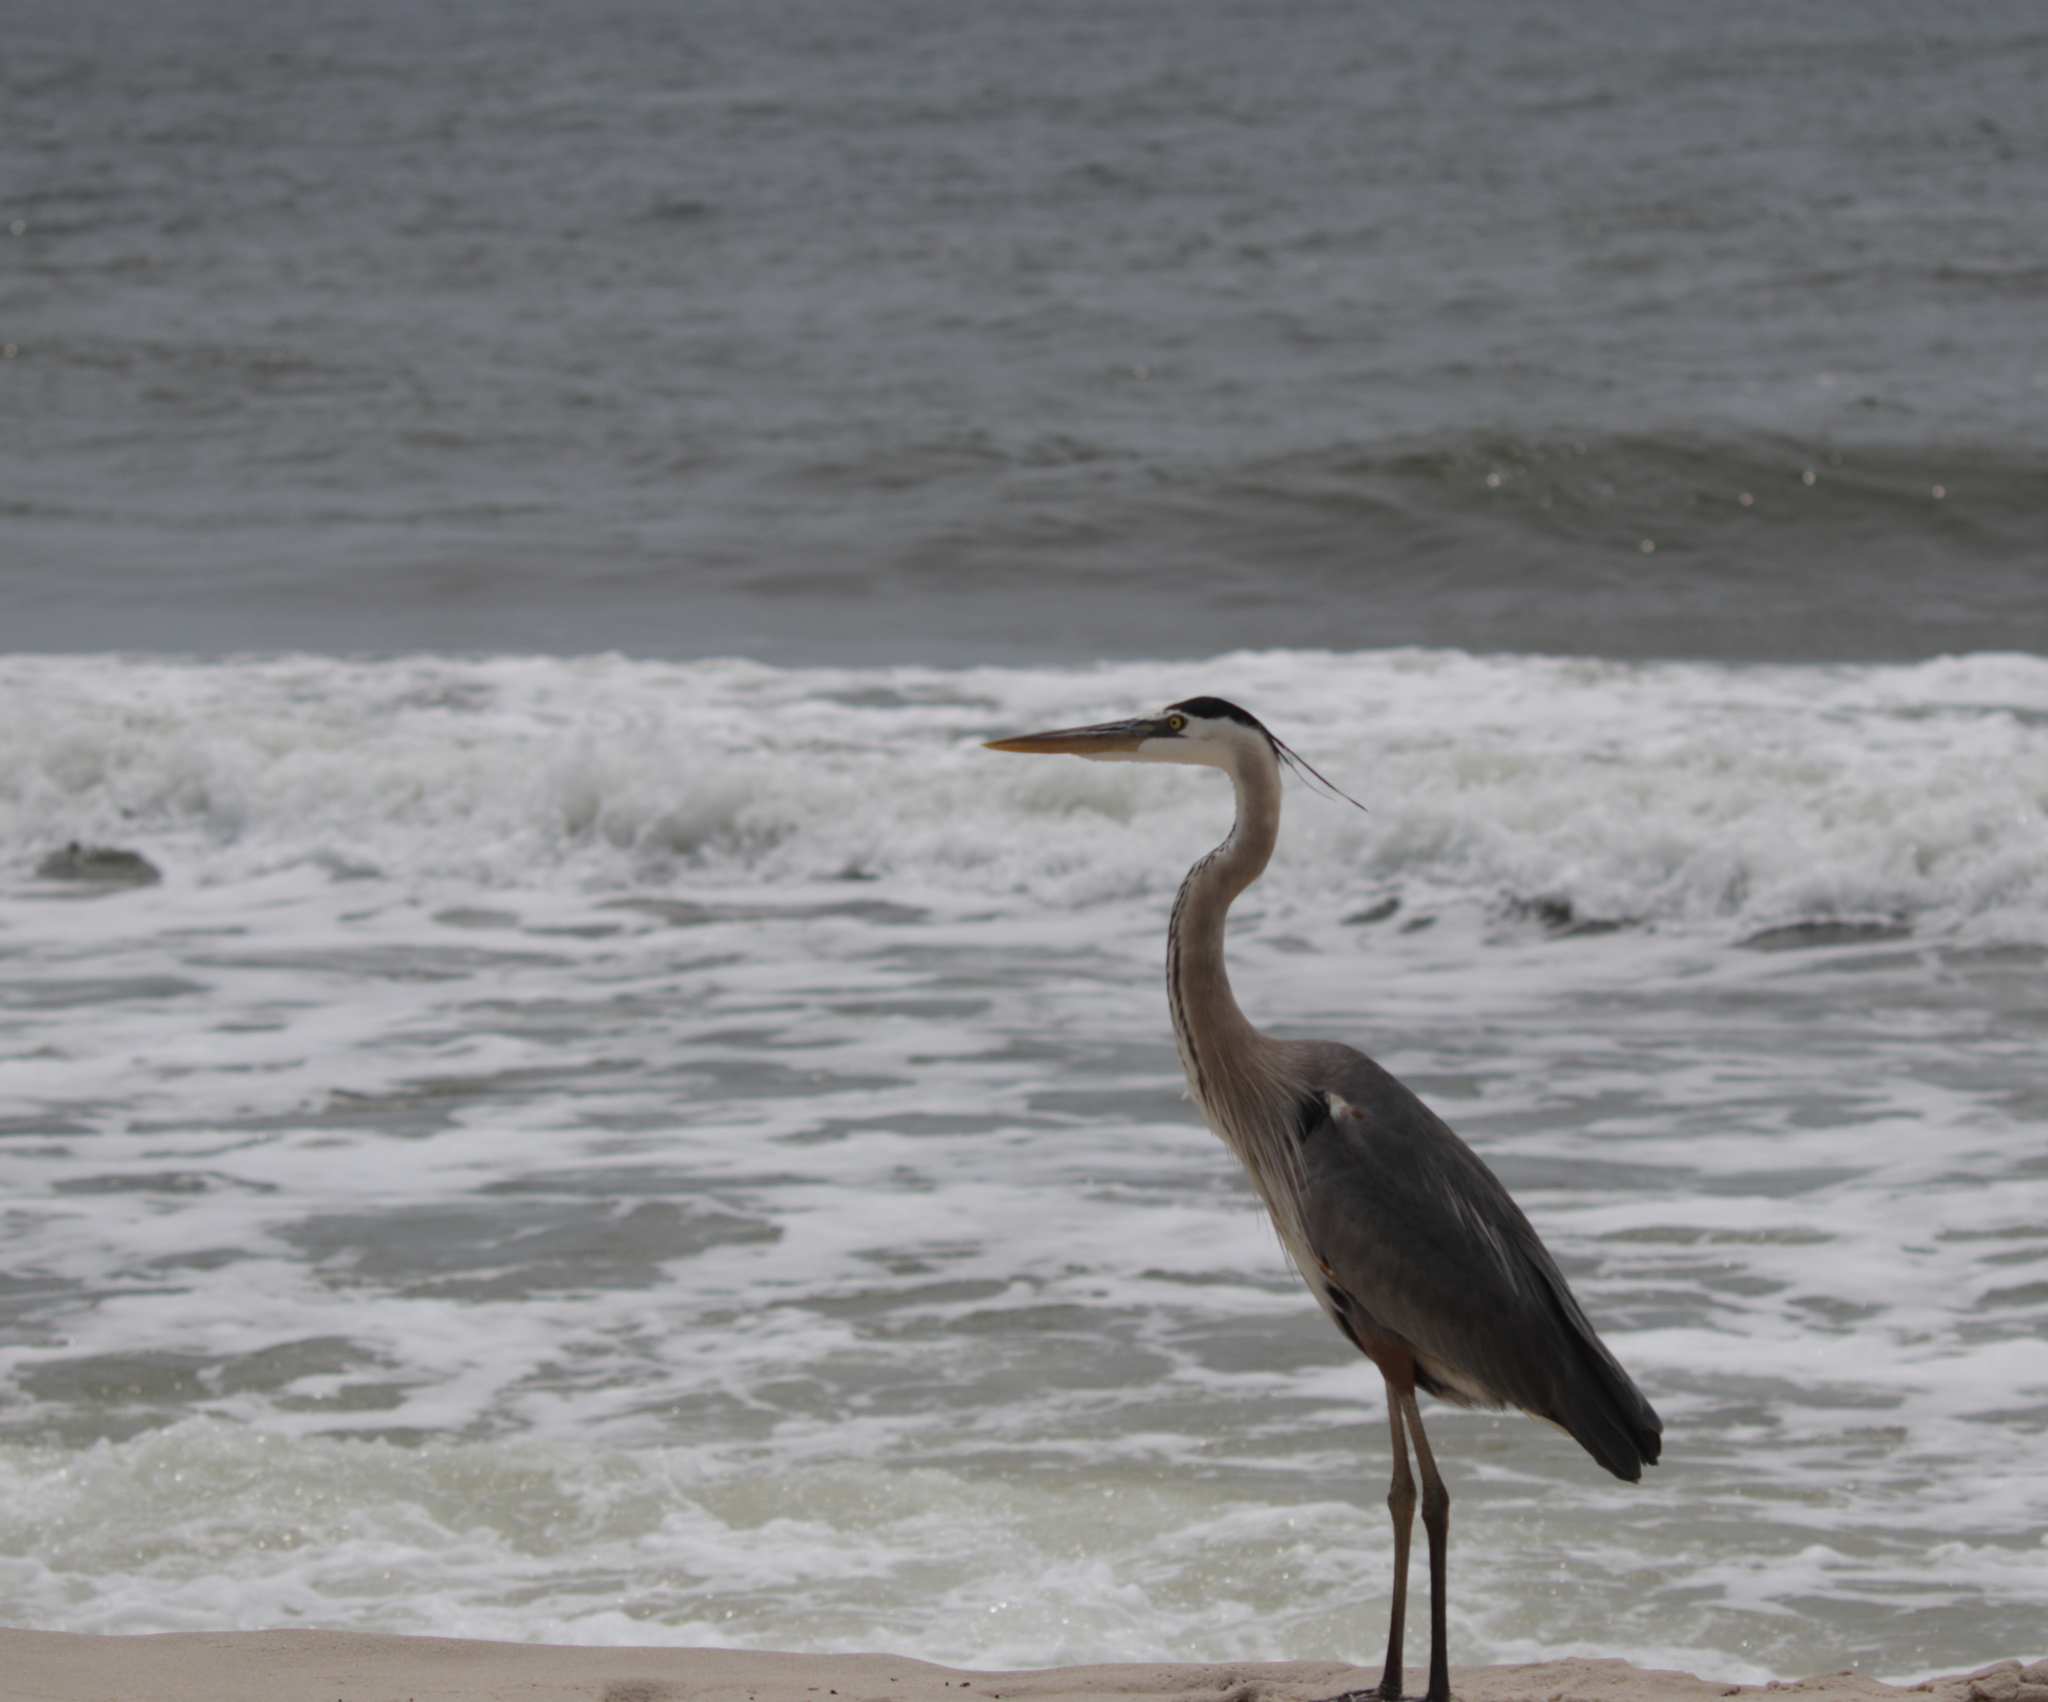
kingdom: Animalia
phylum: Chordata
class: Aves
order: Pelecaniformes
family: Ardeidae
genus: Ardea
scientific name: Ardea herodias
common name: Great blue heron
